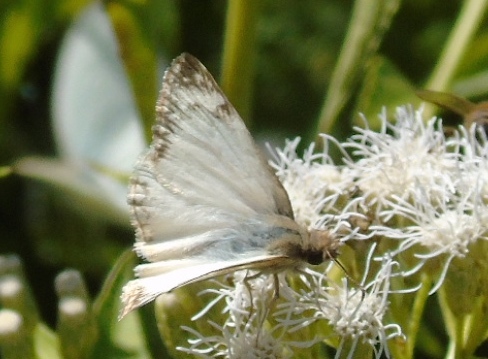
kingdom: Animalia
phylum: Arthropoda
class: Insecta
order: Lepidoptera
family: Hesperiidae
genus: Heliopetes
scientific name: Heliopetes laviana
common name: Laviana white-skipper
